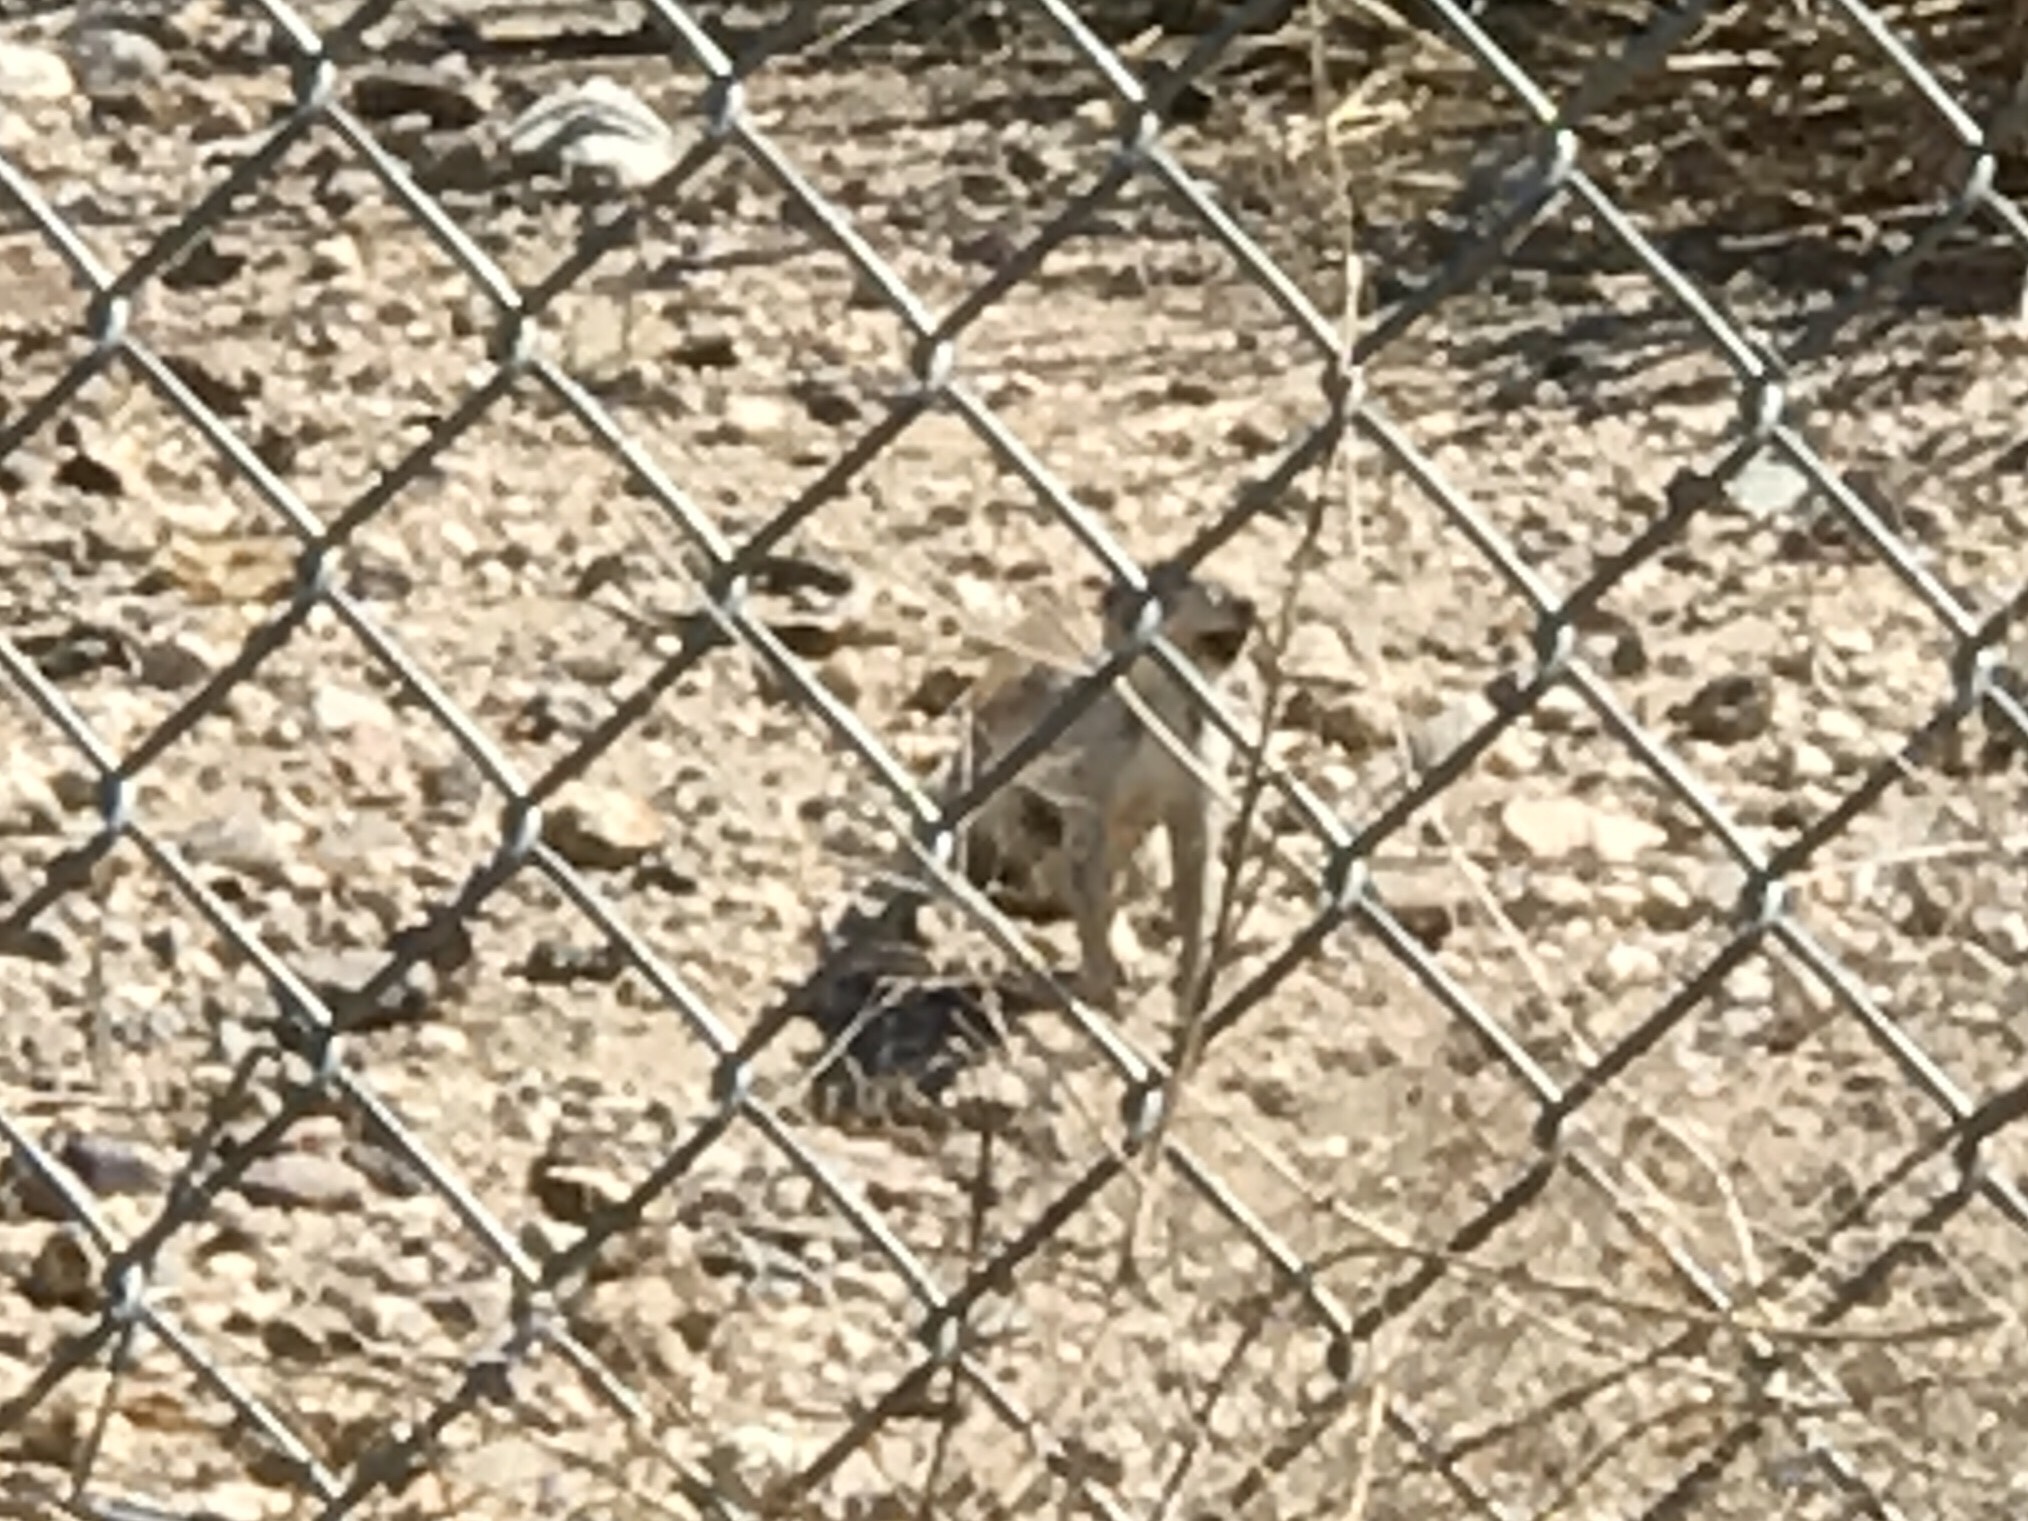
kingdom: Animalia
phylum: Chordata
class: Mammalia
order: Rodentia
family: Sciuridae
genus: Xerospermophilus
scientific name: Xerospermophilus tereticaudus
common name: Round-tailed ground squirrel
